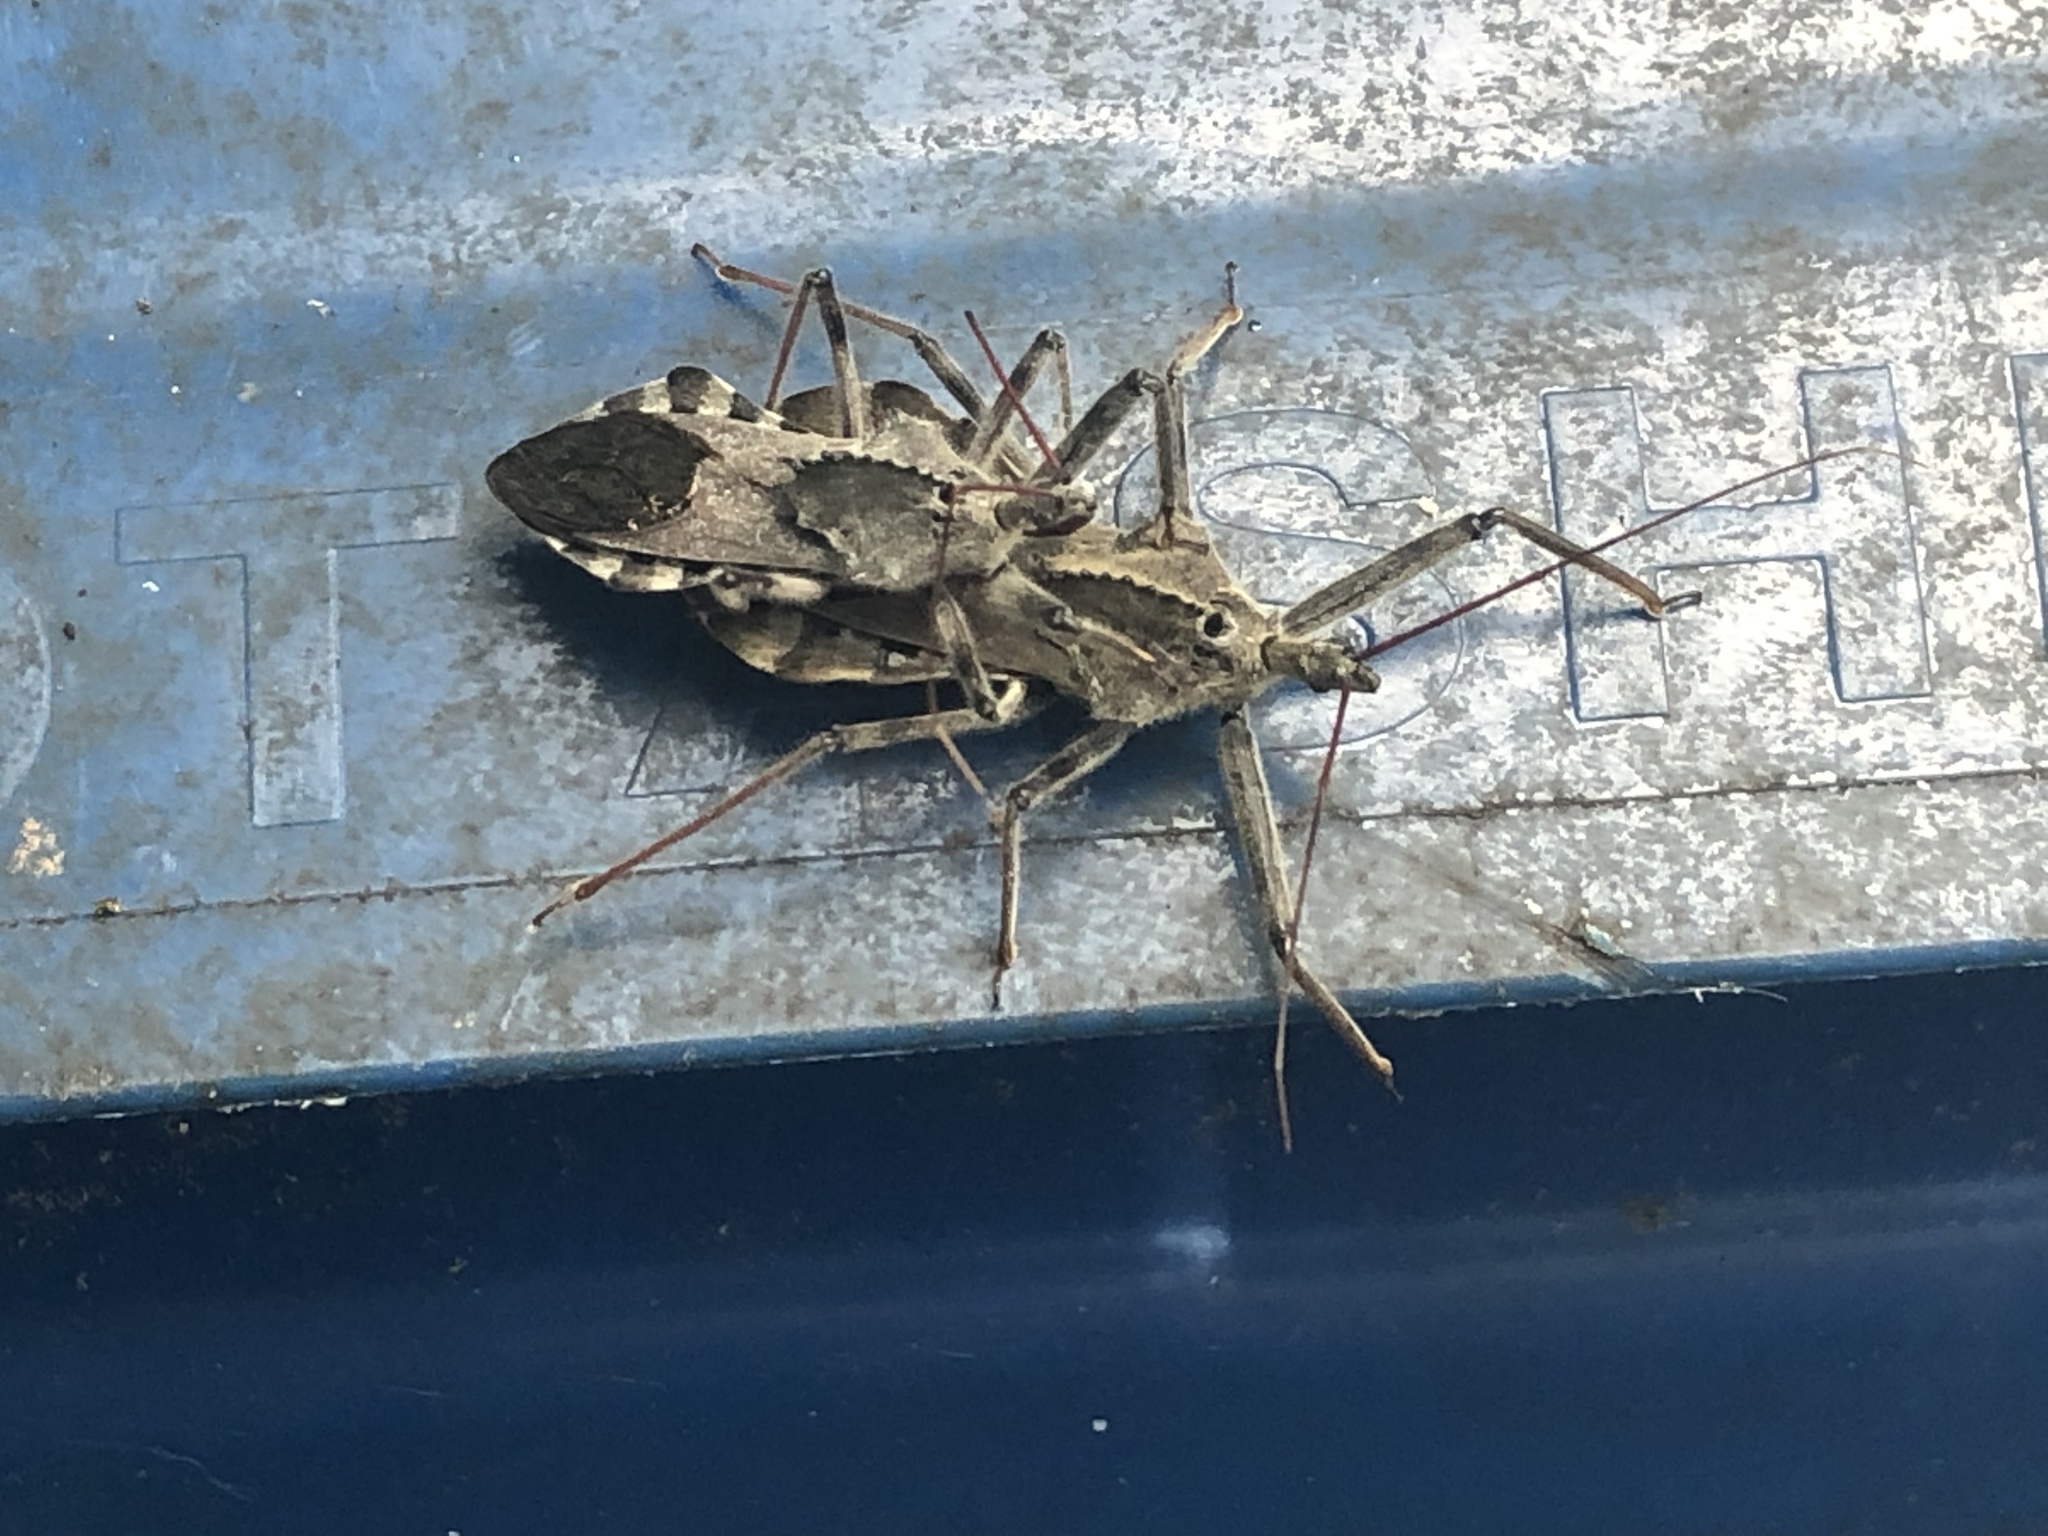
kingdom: Animalia
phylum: Arthropoda
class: Insecta
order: Hemiptera
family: Reduviidae
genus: Arilus
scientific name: Arilus cristatus
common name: North american wheel bug
